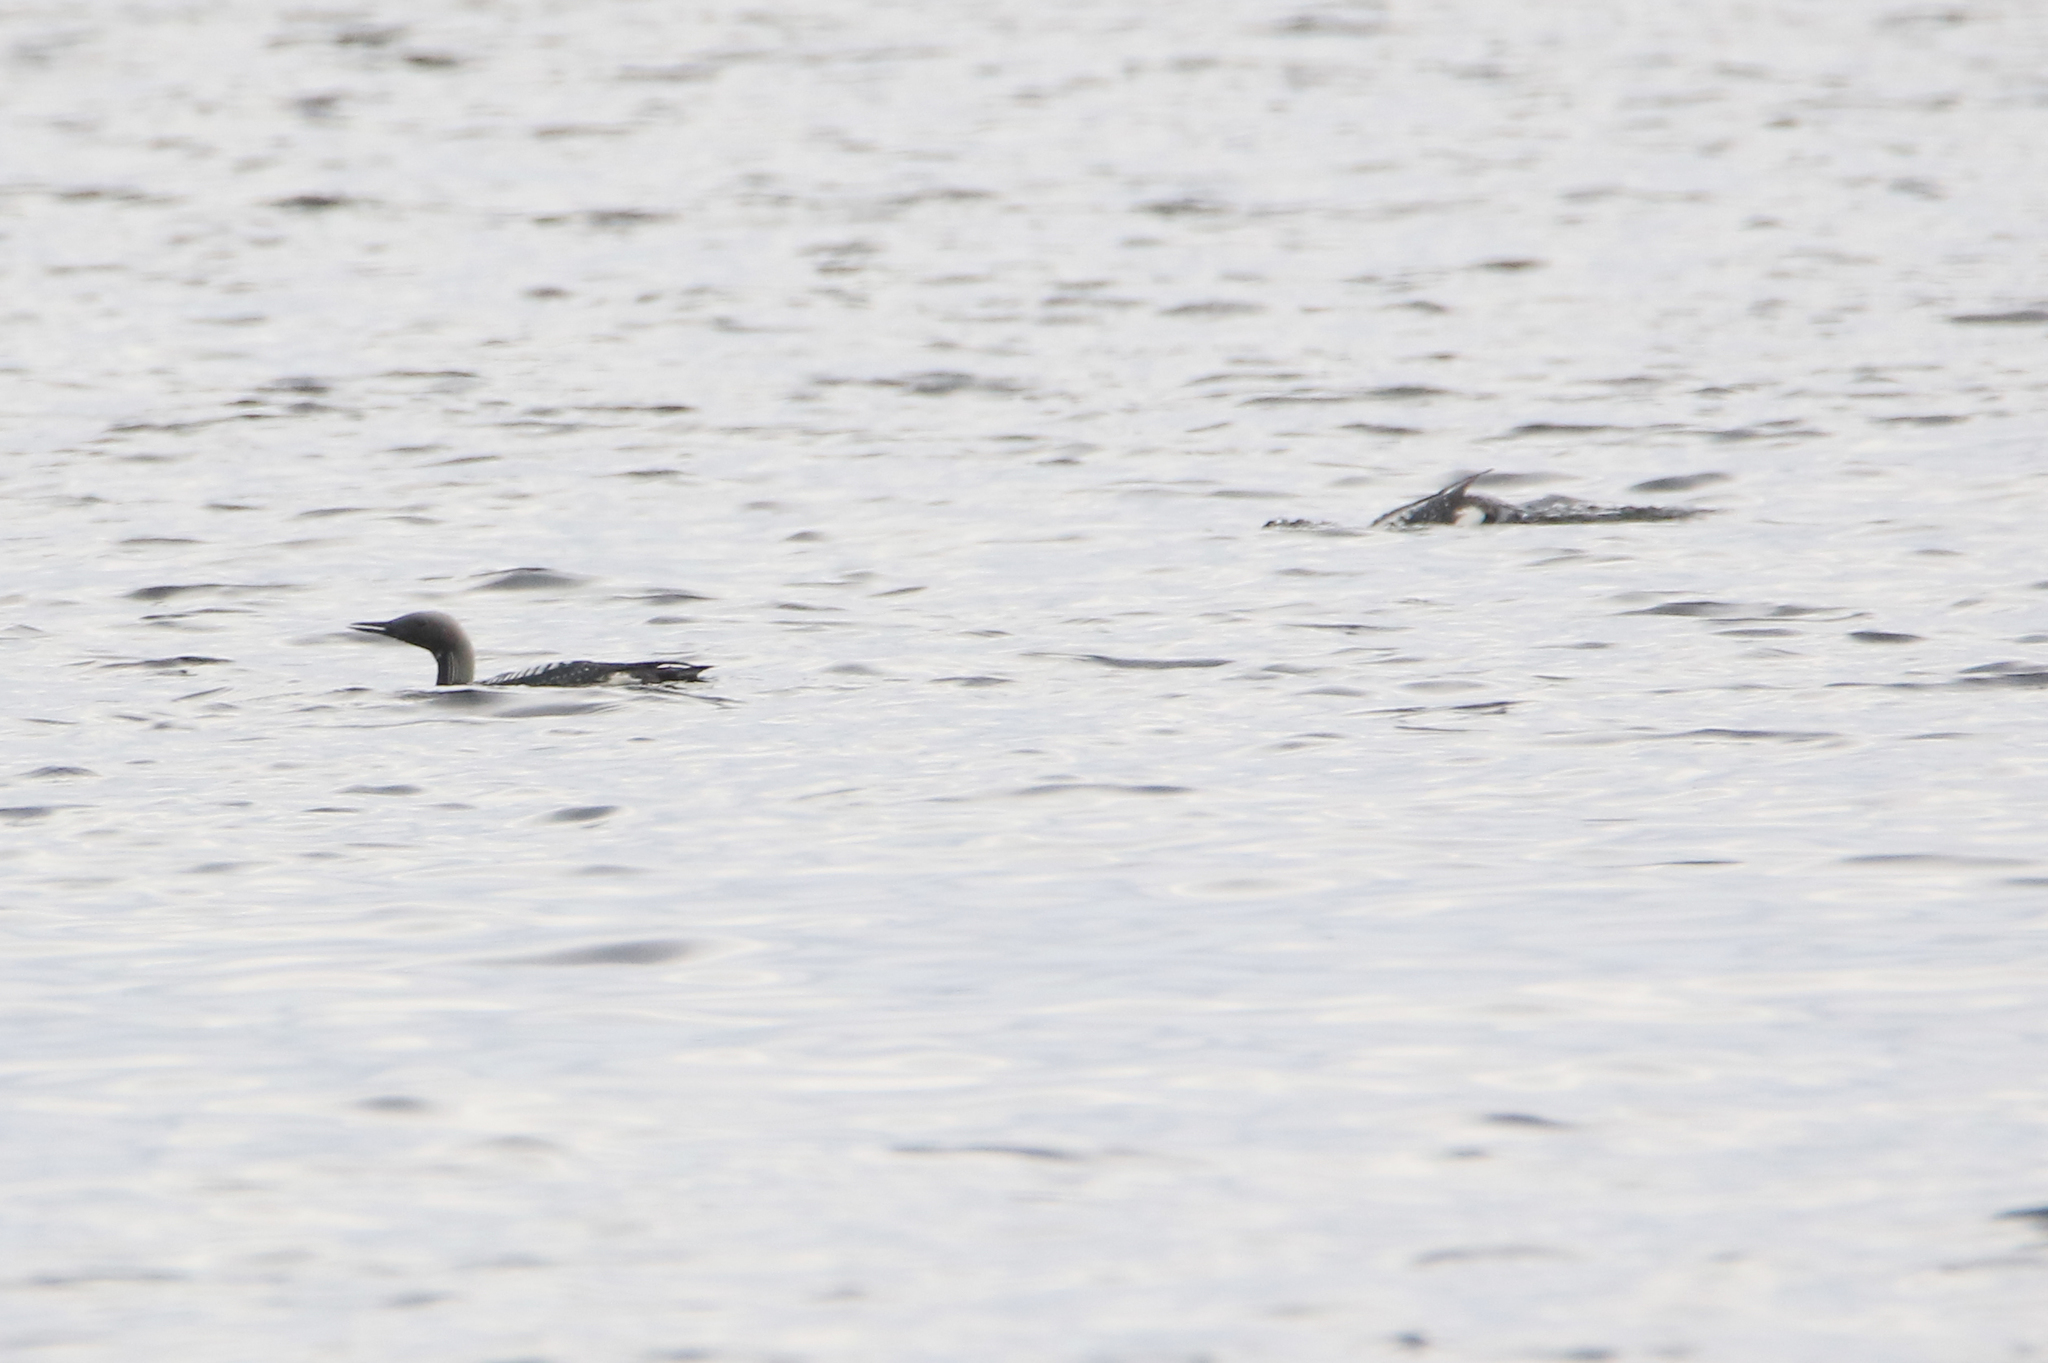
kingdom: Animalia
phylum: Chordata
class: Aves
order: Gaviiformes
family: Gaviidae
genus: Gavia
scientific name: Gavia arctica
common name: Black-throated loon
